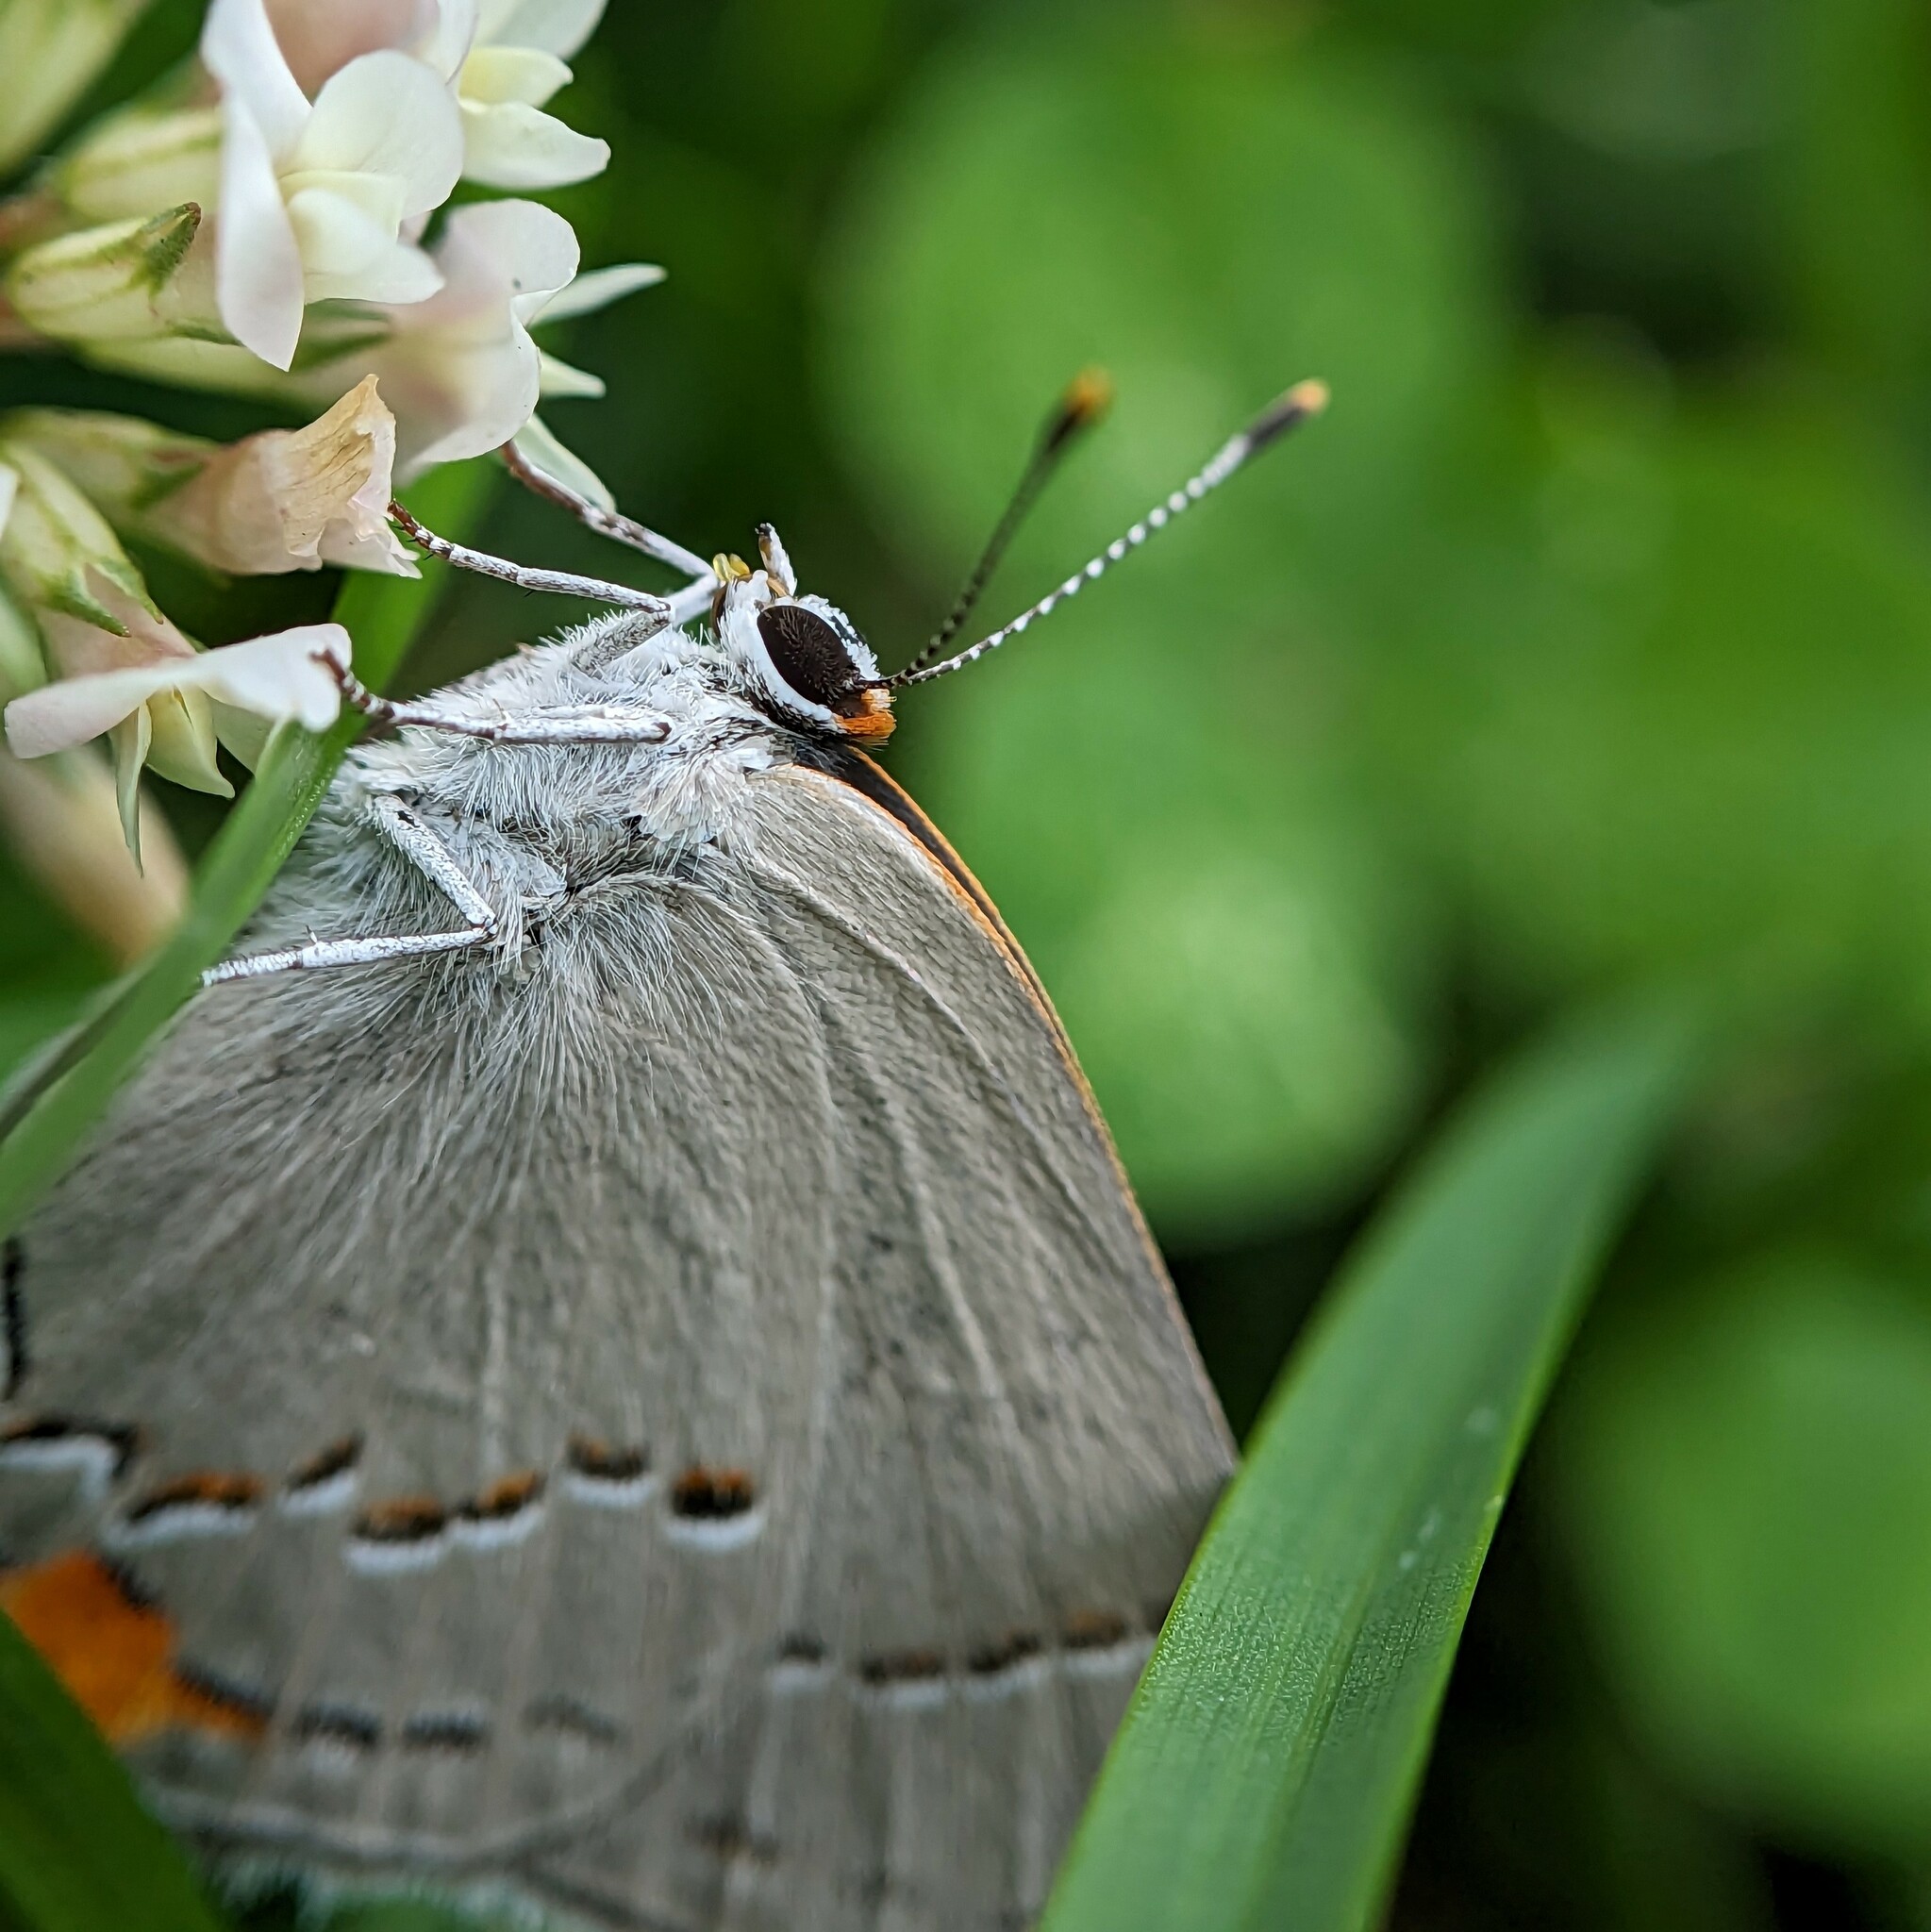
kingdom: Animalia
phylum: Arthropoda
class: Insecta
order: Lepidoptera
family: Lycaenidae
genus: Strymon
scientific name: Strymon melinus
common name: Gray hairstreak
